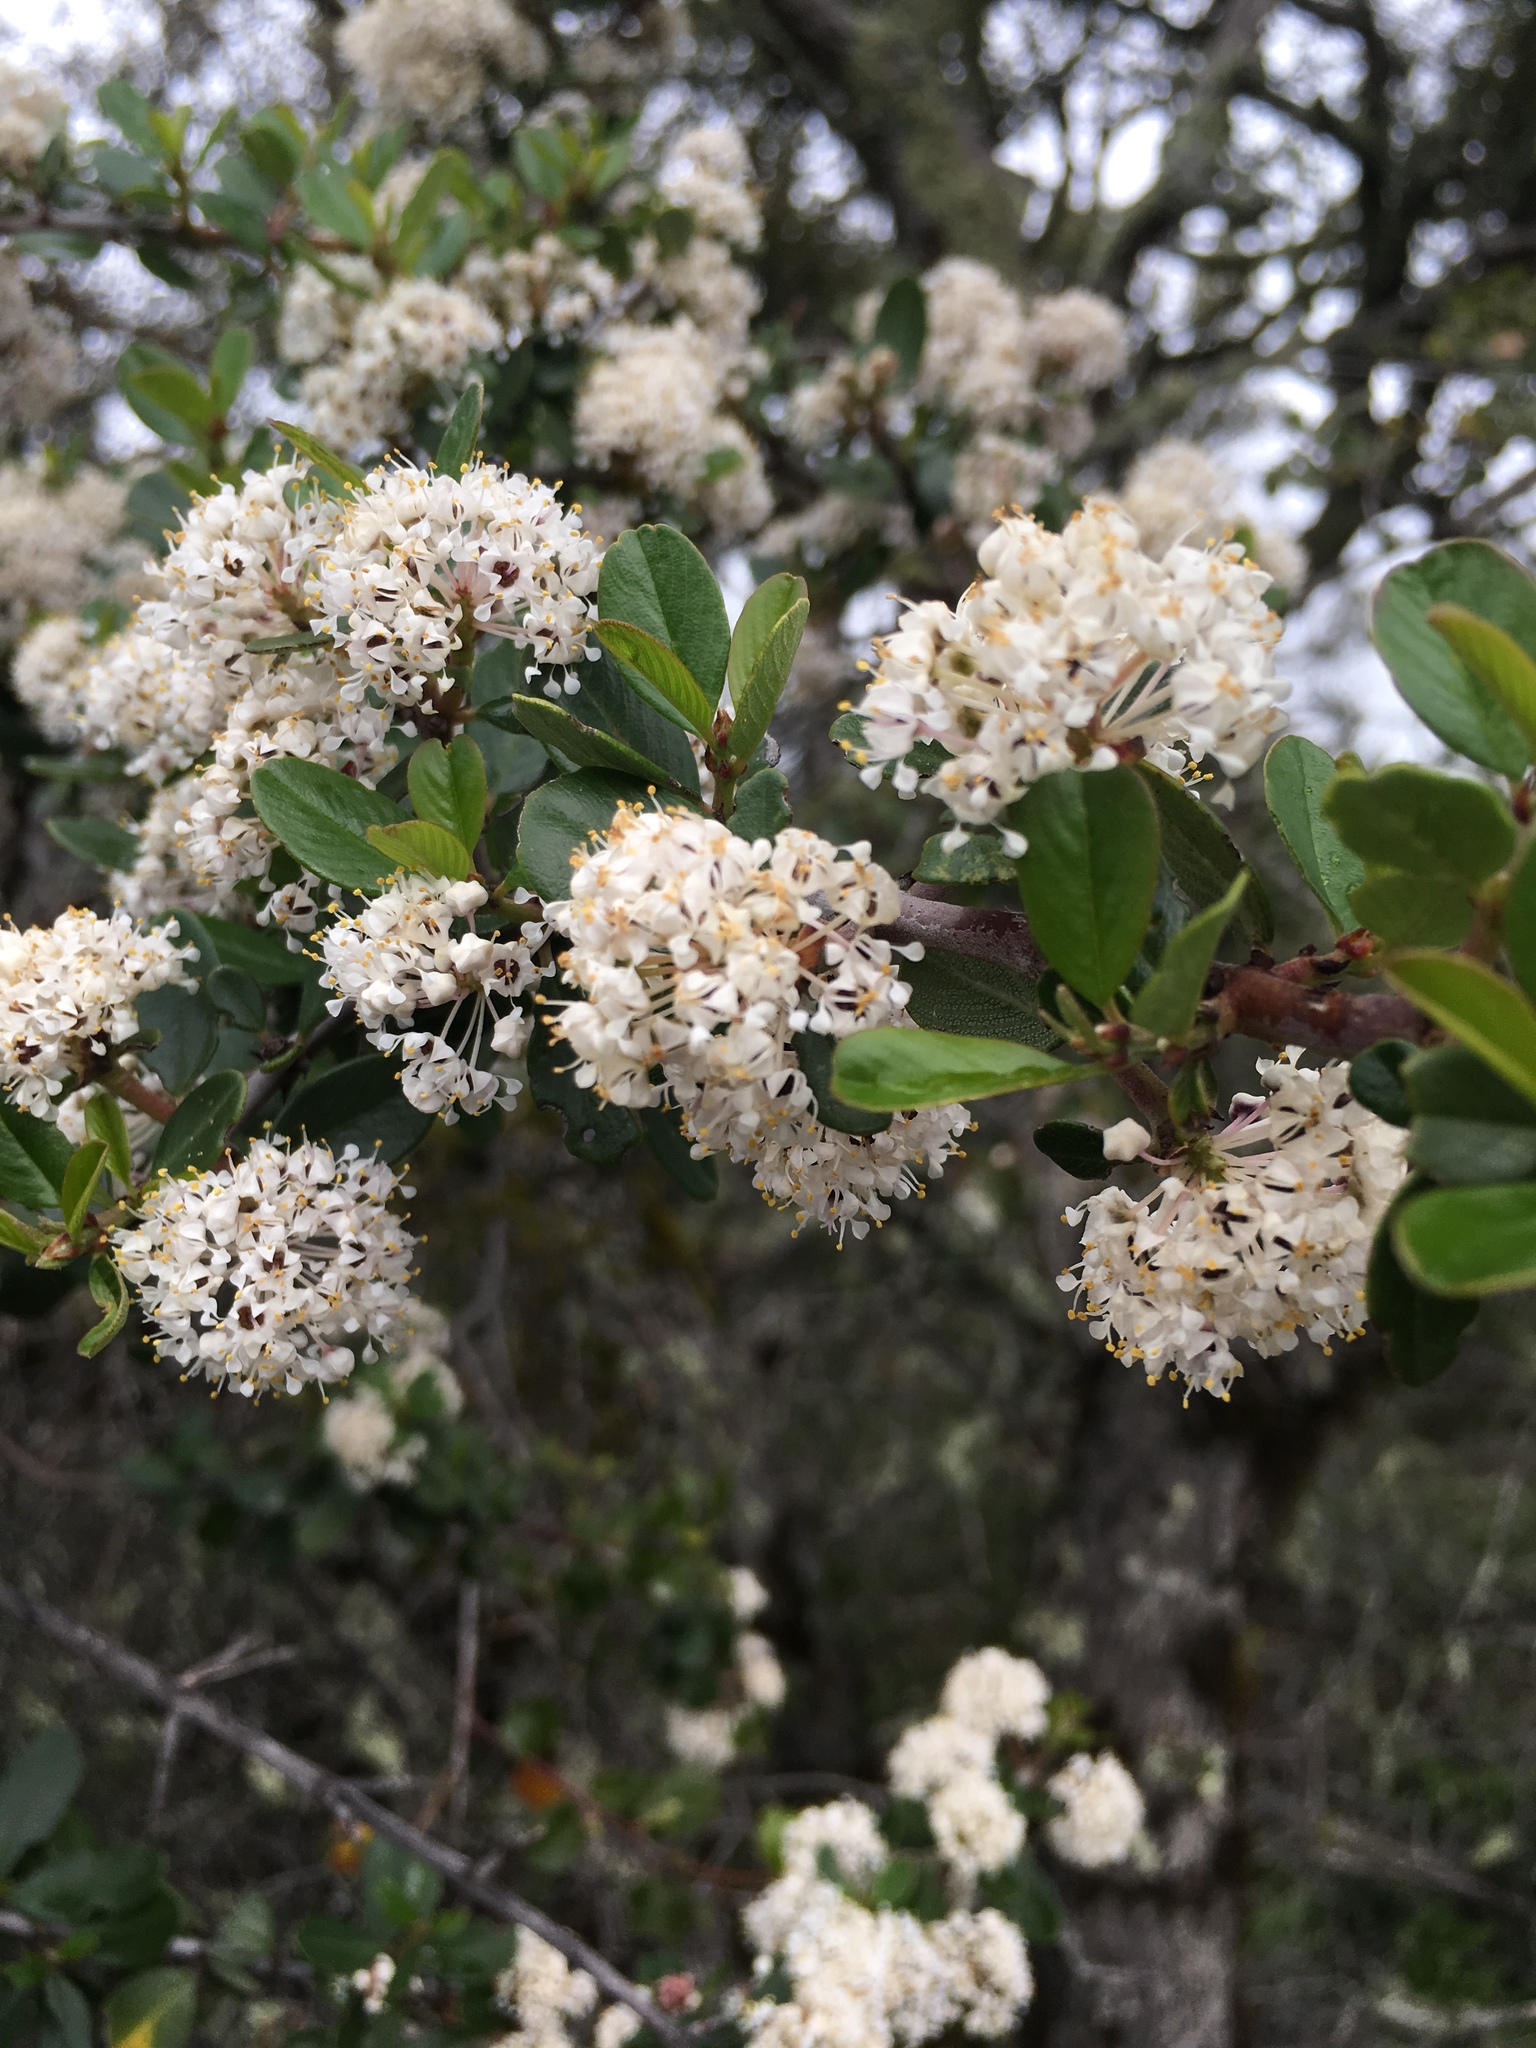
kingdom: Plantae
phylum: Tracheophyta
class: Magnoliopsida
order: Rosales
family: Rhamnaceae
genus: Ceanothus
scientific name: Ceanothus cuneatus
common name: Cuneate ceanothus
